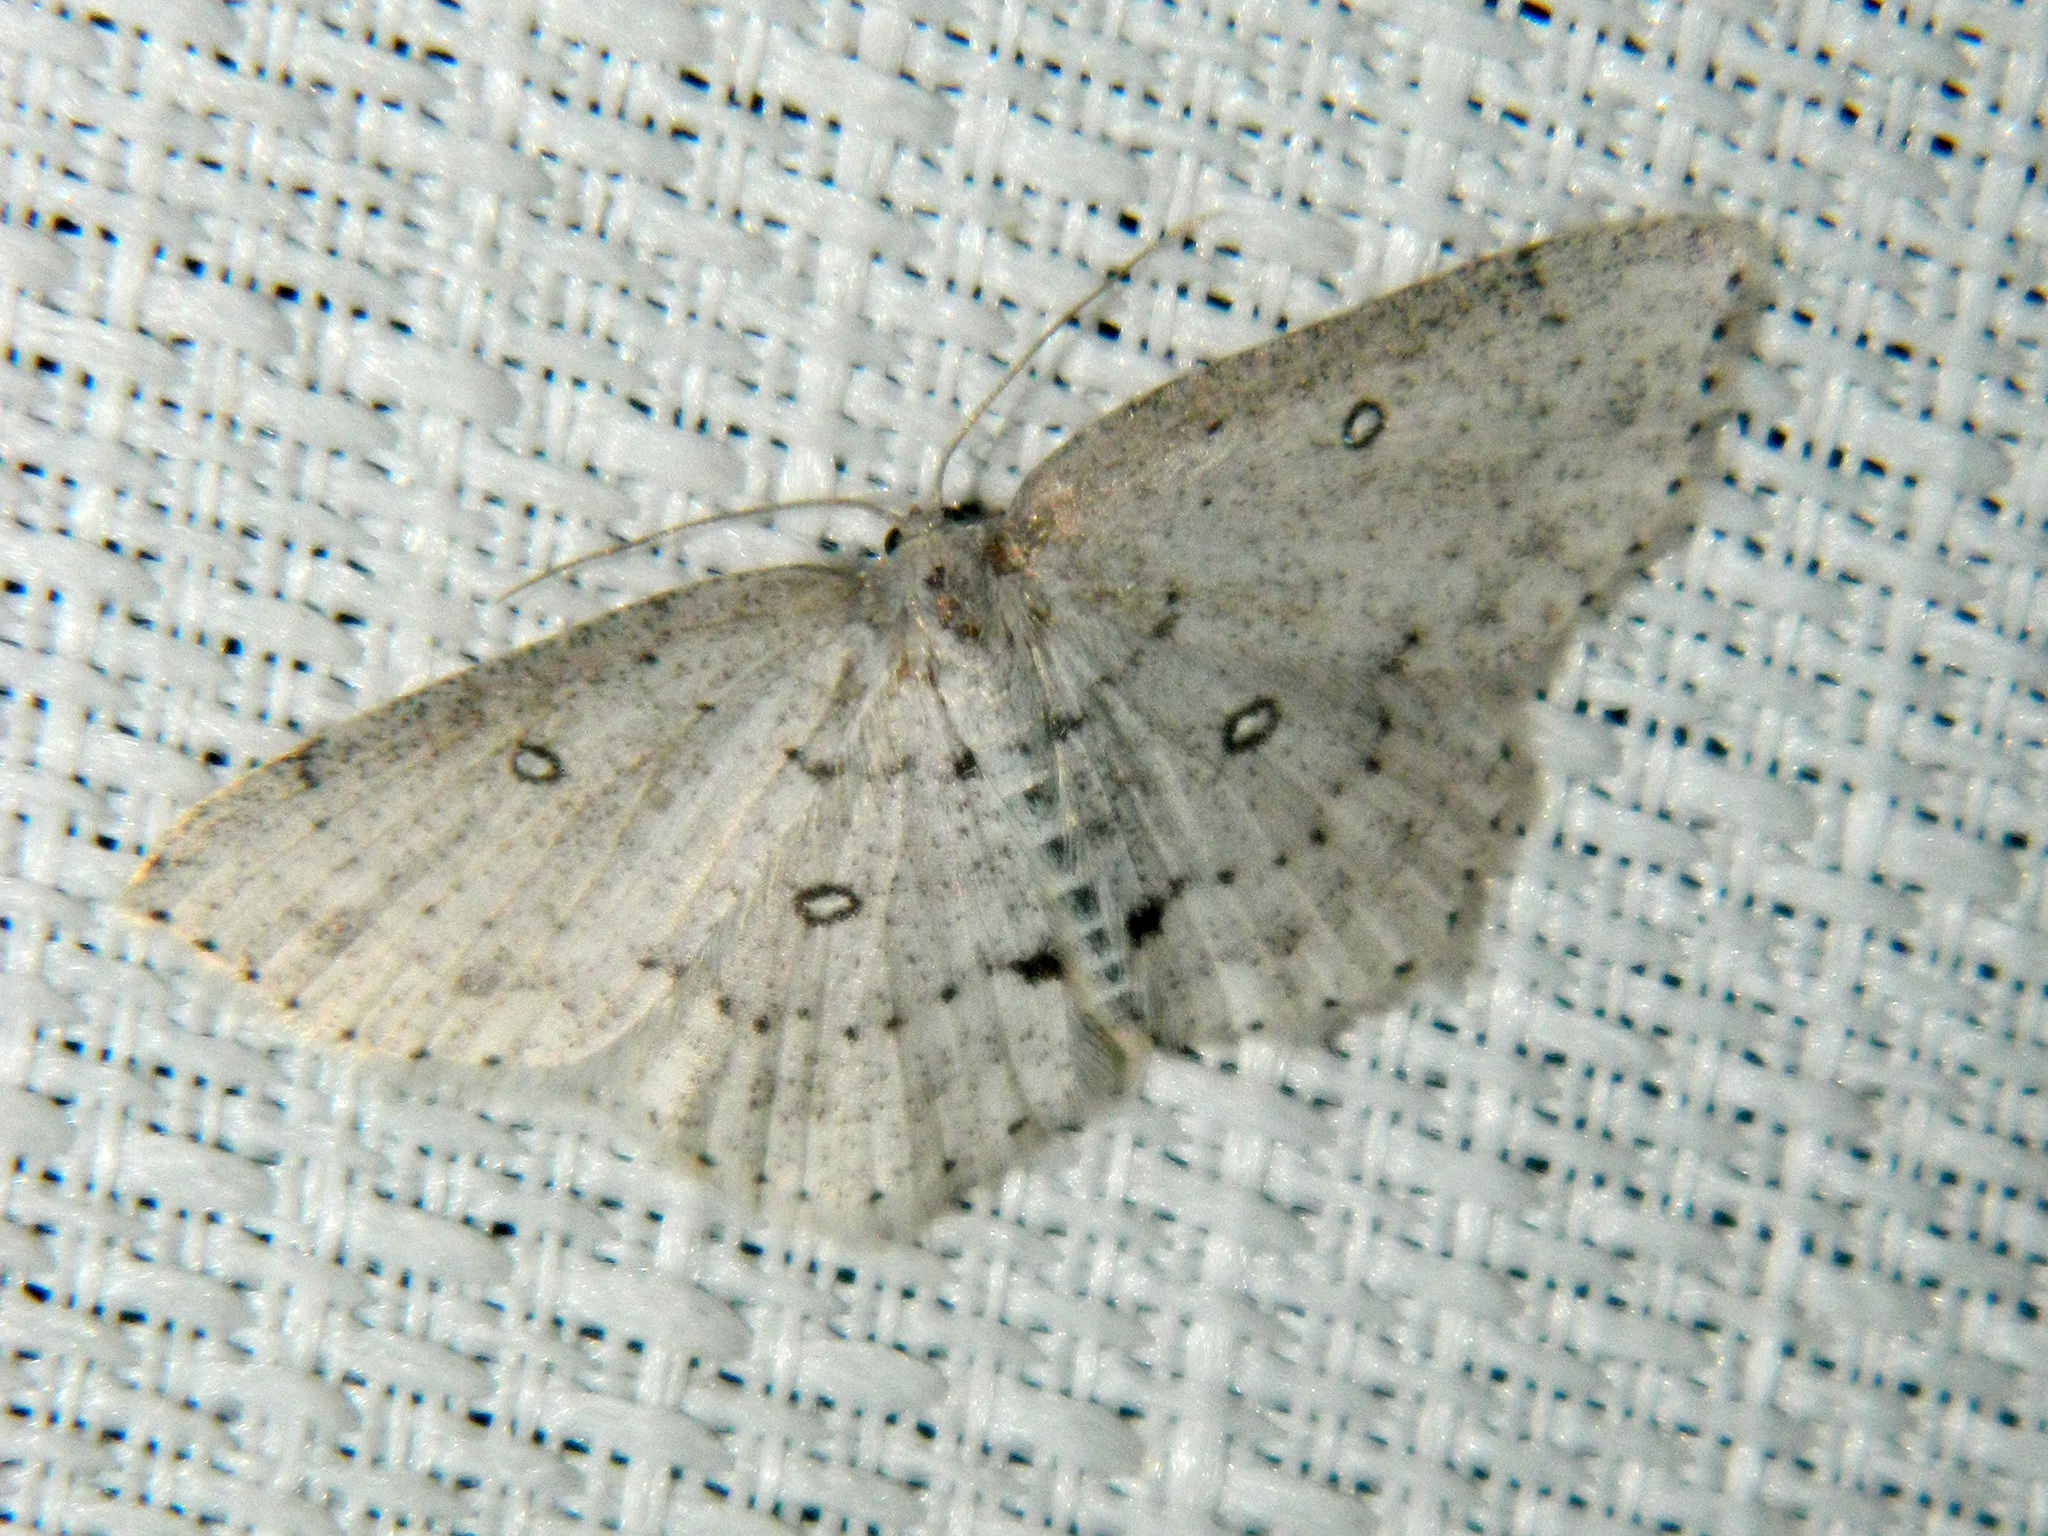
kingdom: Animalia
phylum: Arthropoda
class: Insecta
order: Lepidoptera
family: Geometridae
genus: Cyclophora
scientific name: Cyclophora pendulinaria
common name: Sweet fern geometer
